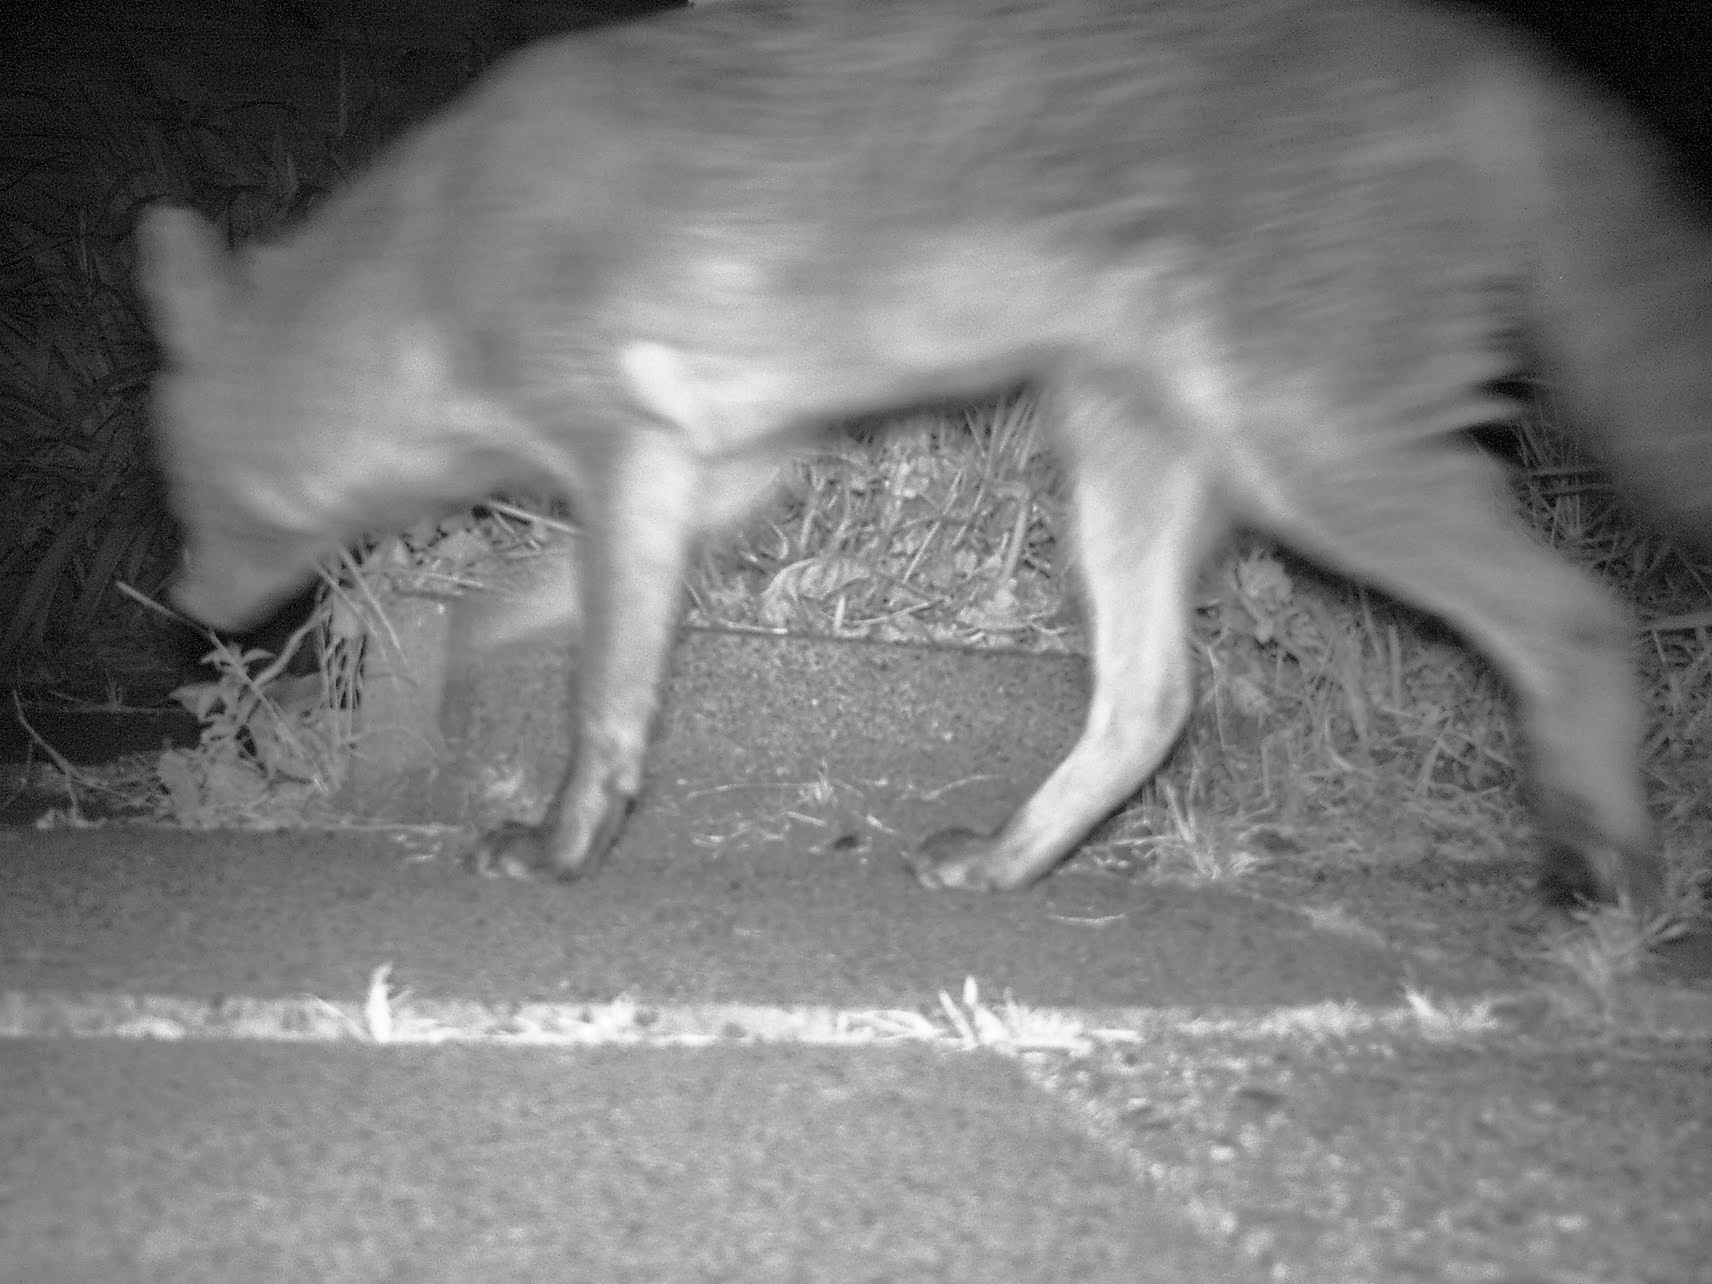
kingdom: Animalia
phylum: Chordata
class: Mammalia
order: Carnivora
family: Canidae
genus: Vulpes
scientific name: Vulpes vulpes
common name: Red fox
